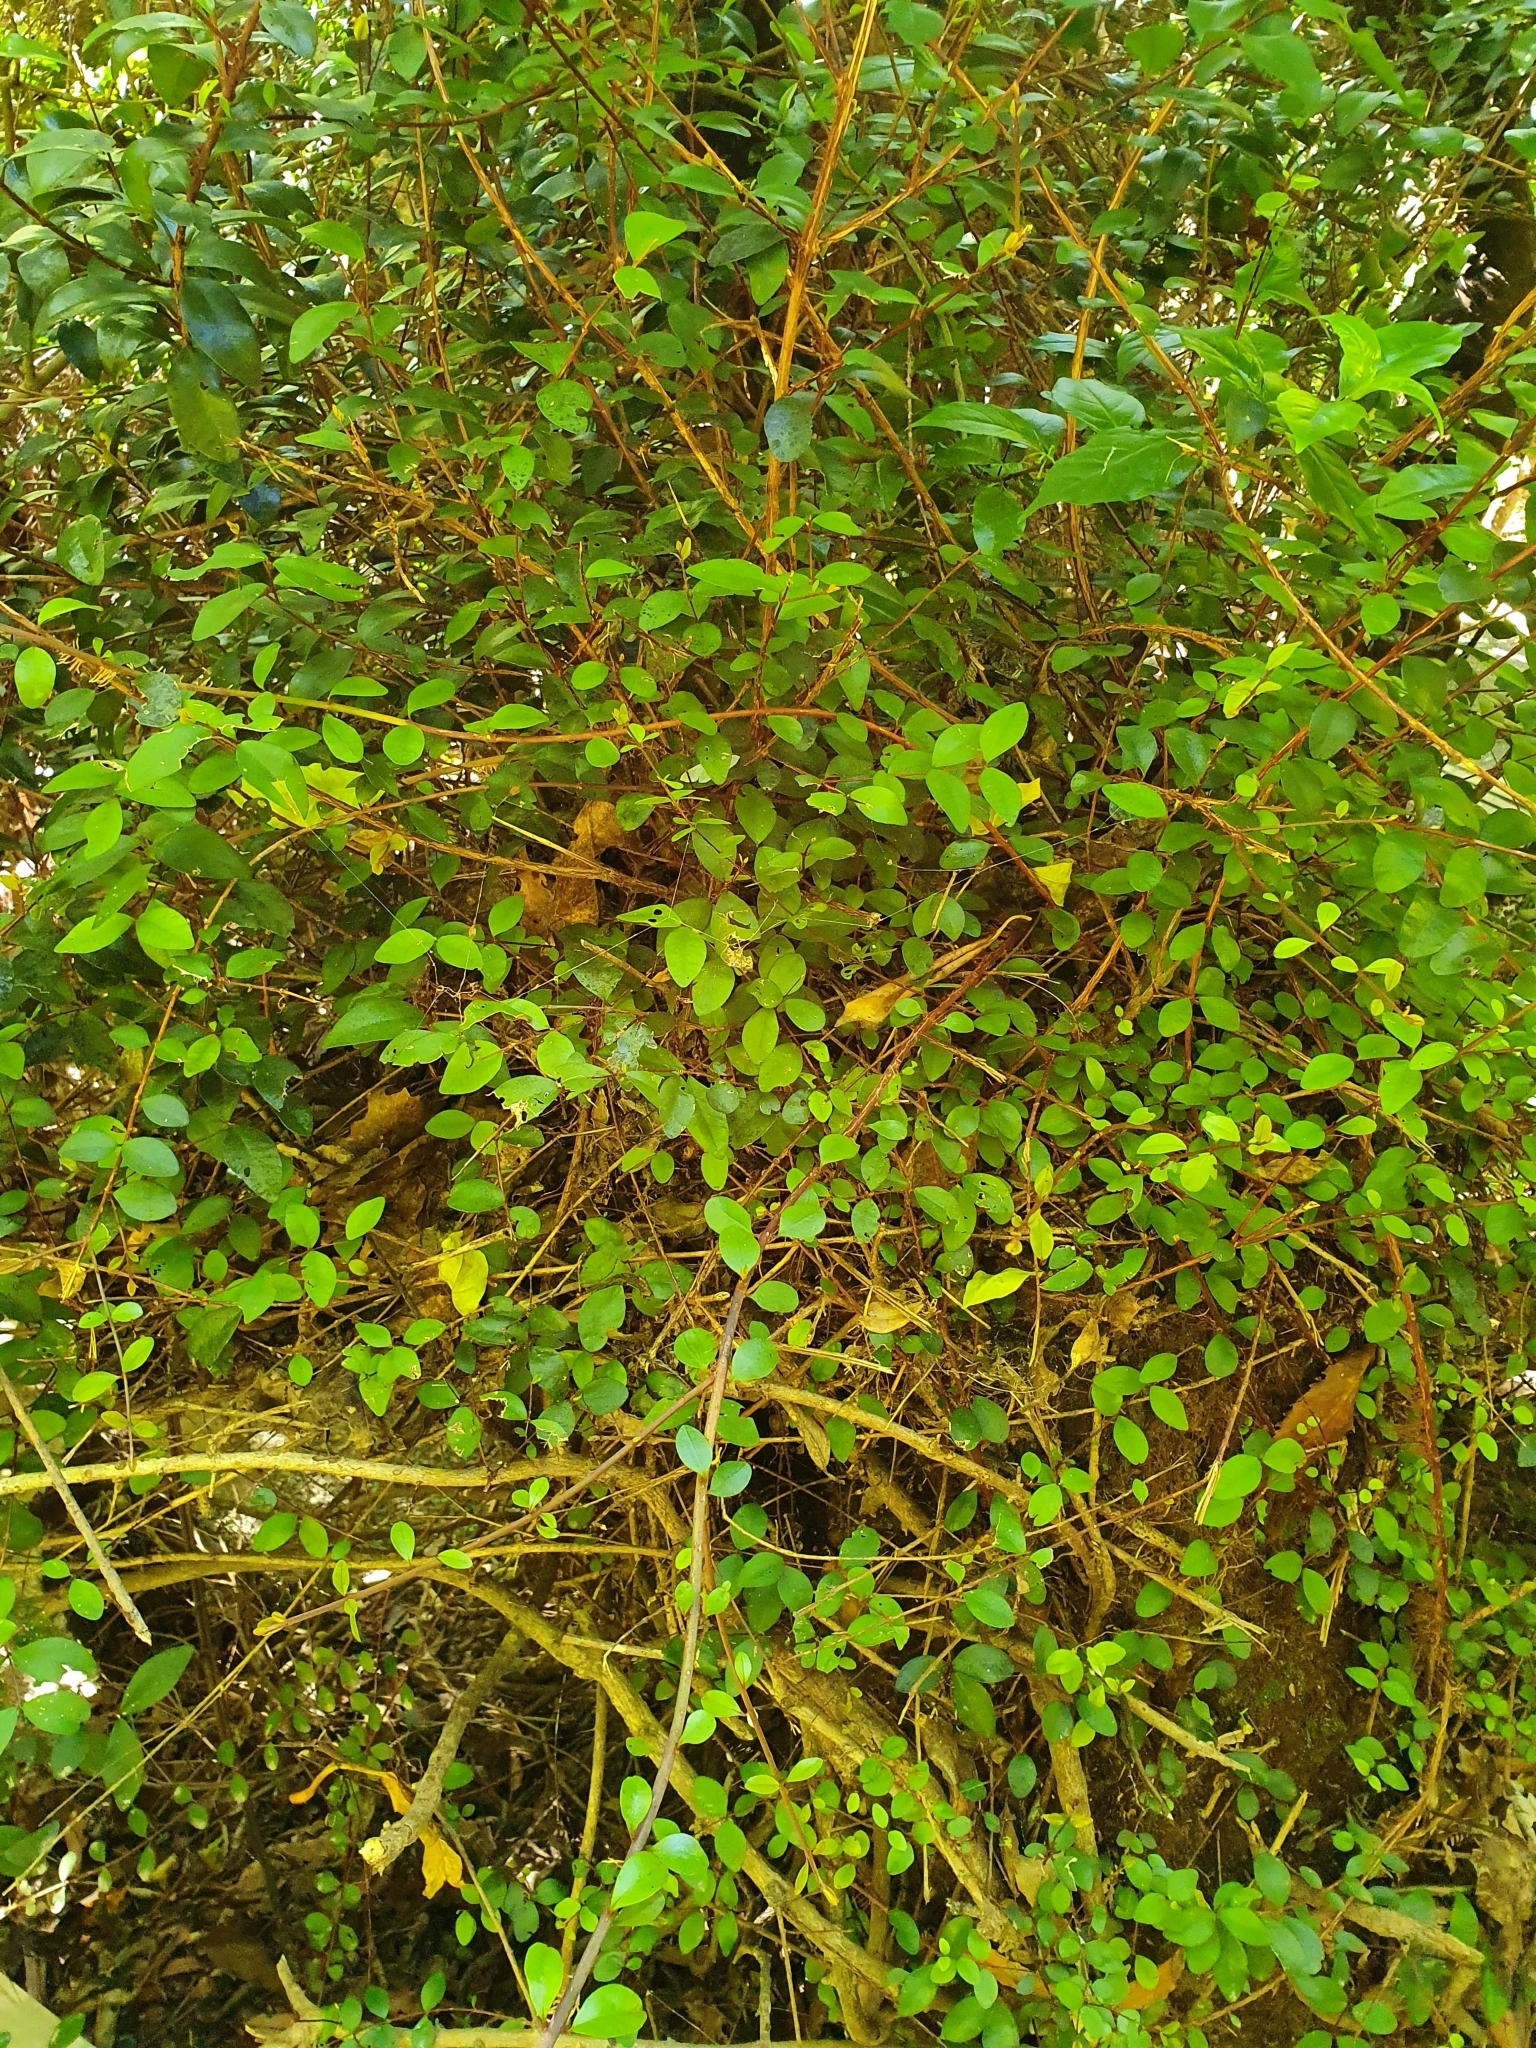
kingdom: Plantae
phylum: Tracheophyta
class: Magnoliopsida
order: Myrtales
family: Myrtaceae
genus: Metrosideros
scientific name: Metrosideros fulgens
